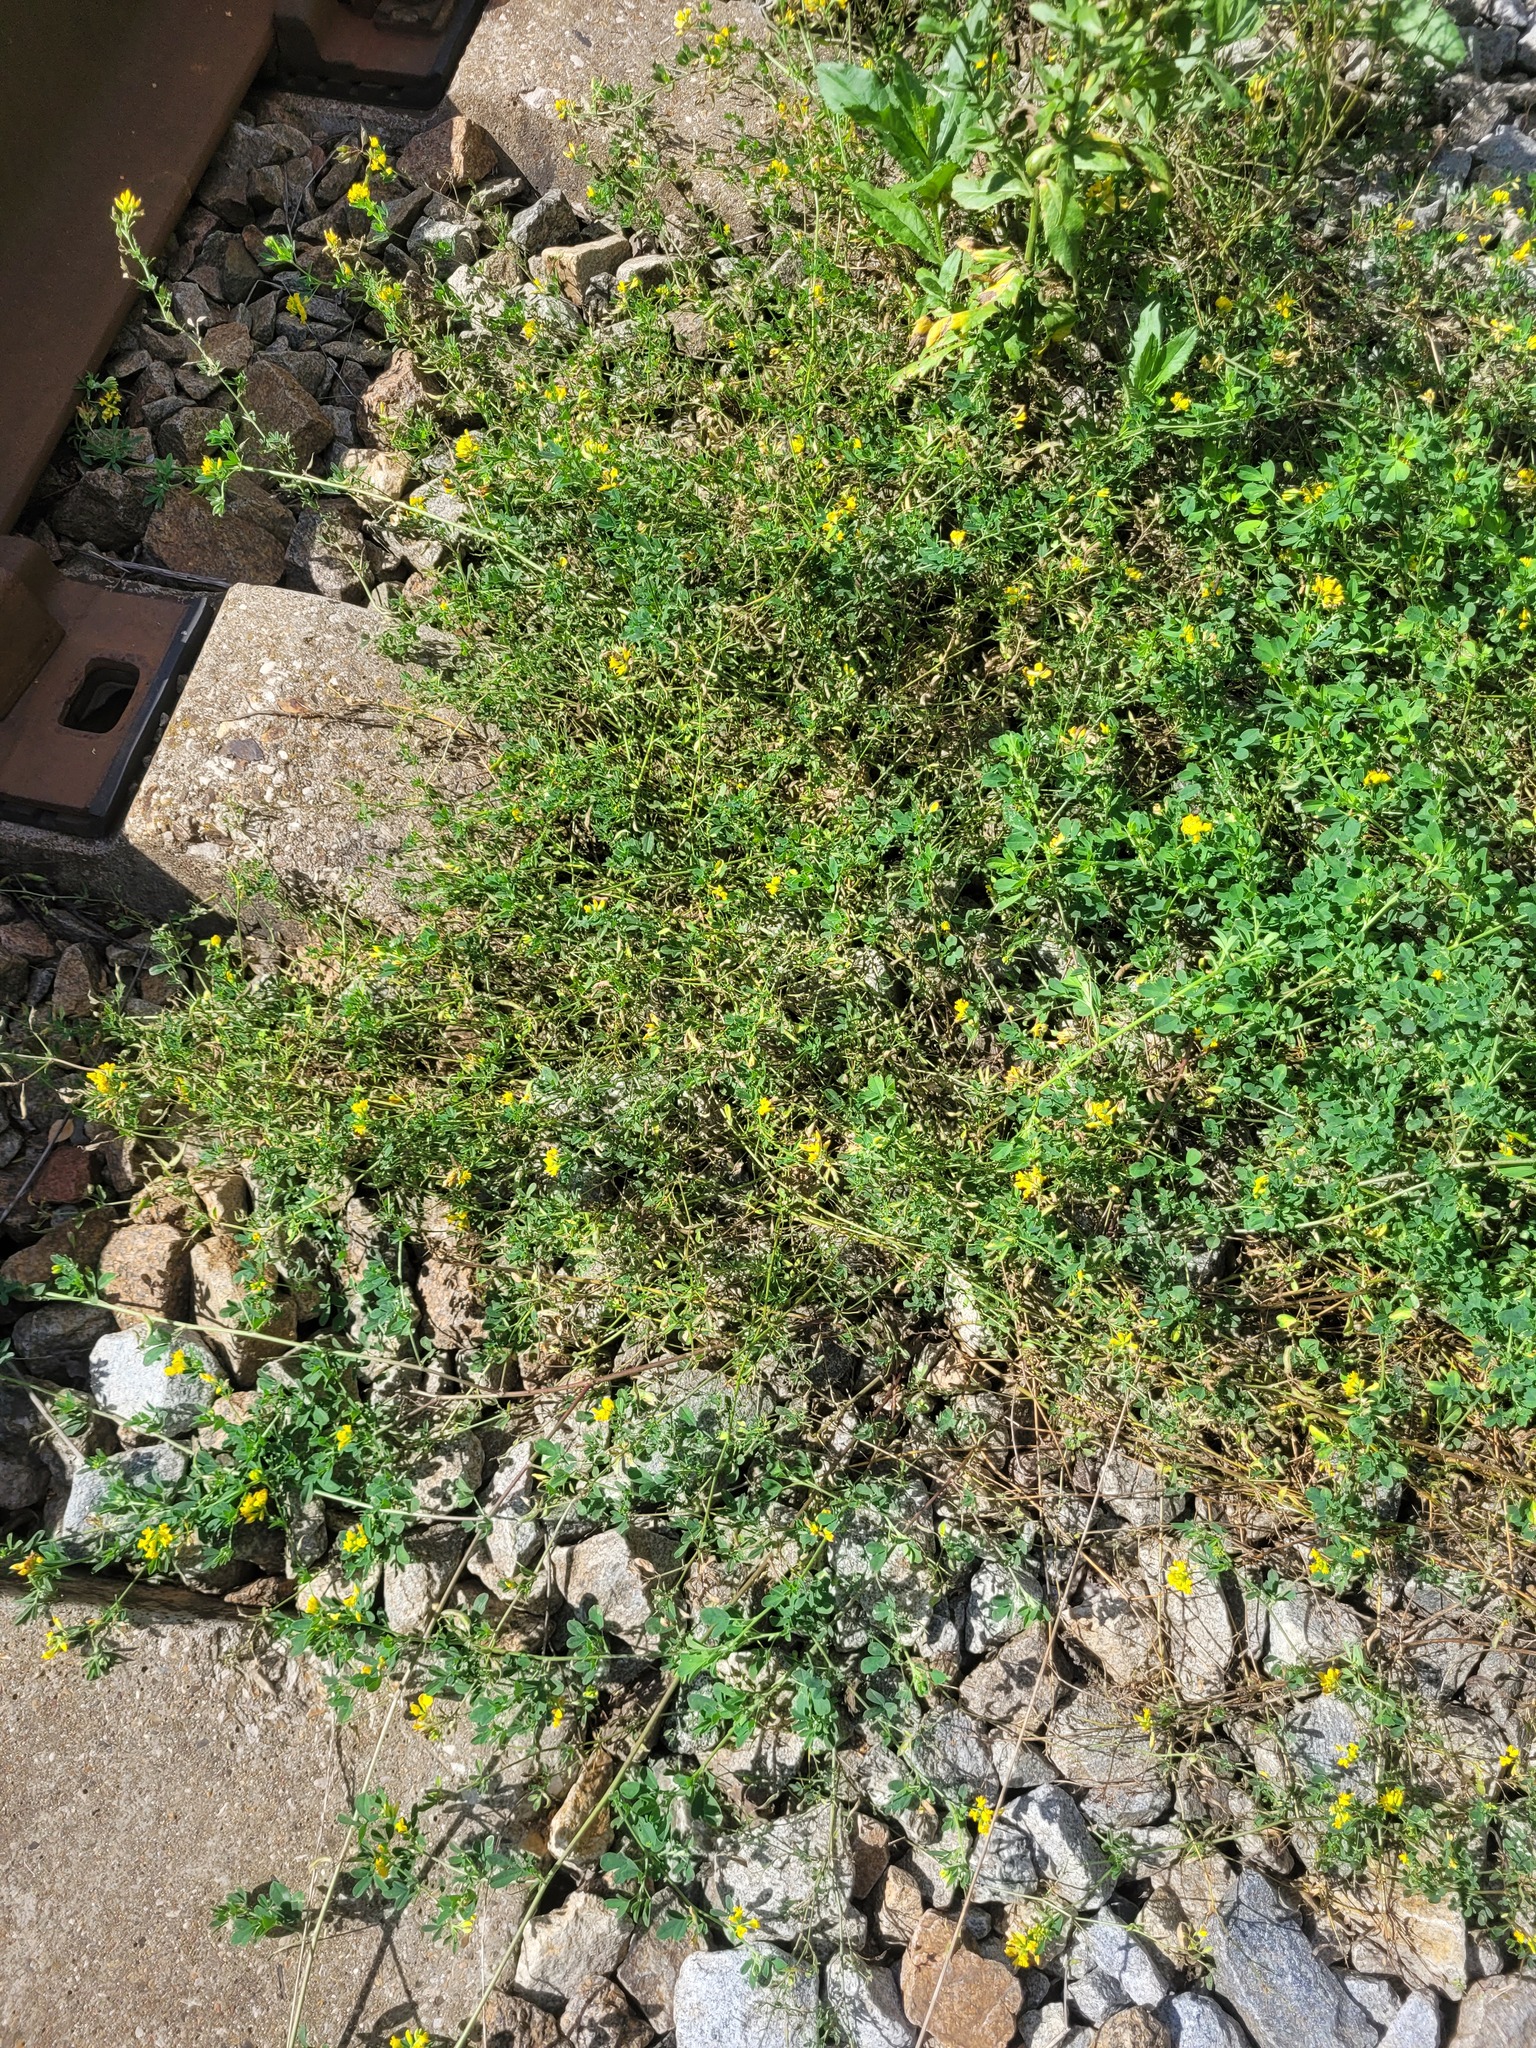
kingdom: Plantae
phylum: Tracheophyta
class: Magnoliopsida
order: Fabales
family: Fabaceae
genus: Medicago
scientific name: Medicago falcata
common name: Sickle medick
